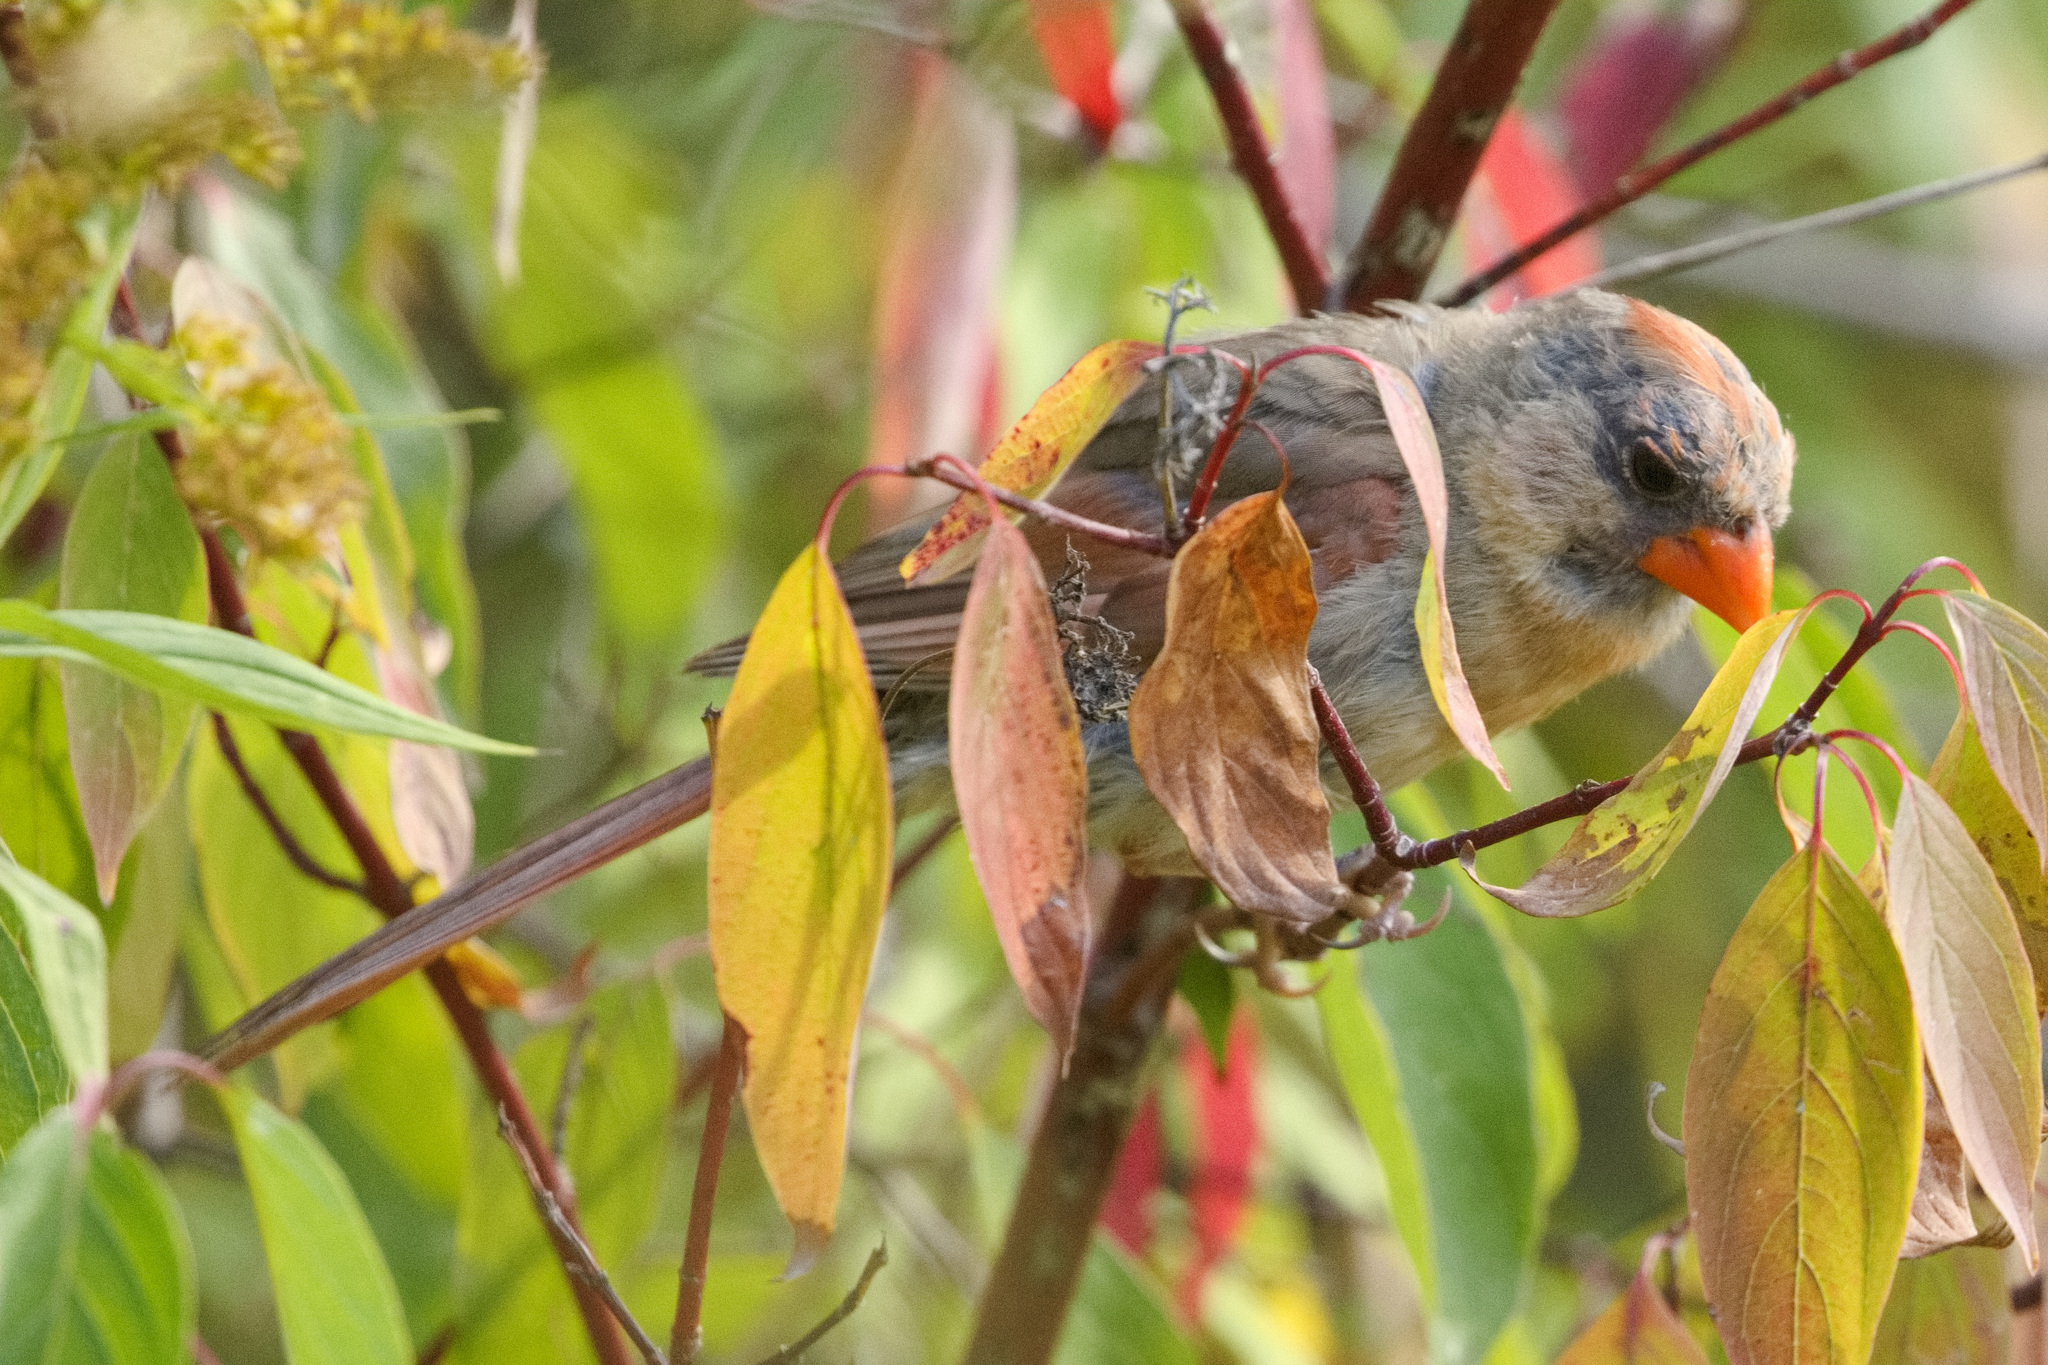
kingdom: Animalia
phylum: Chordata
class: Aves
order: Passeriformes
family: Cardinalidae
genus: Cardinalis
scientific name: Cardinalis cardinalis
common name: Northern cardinal
